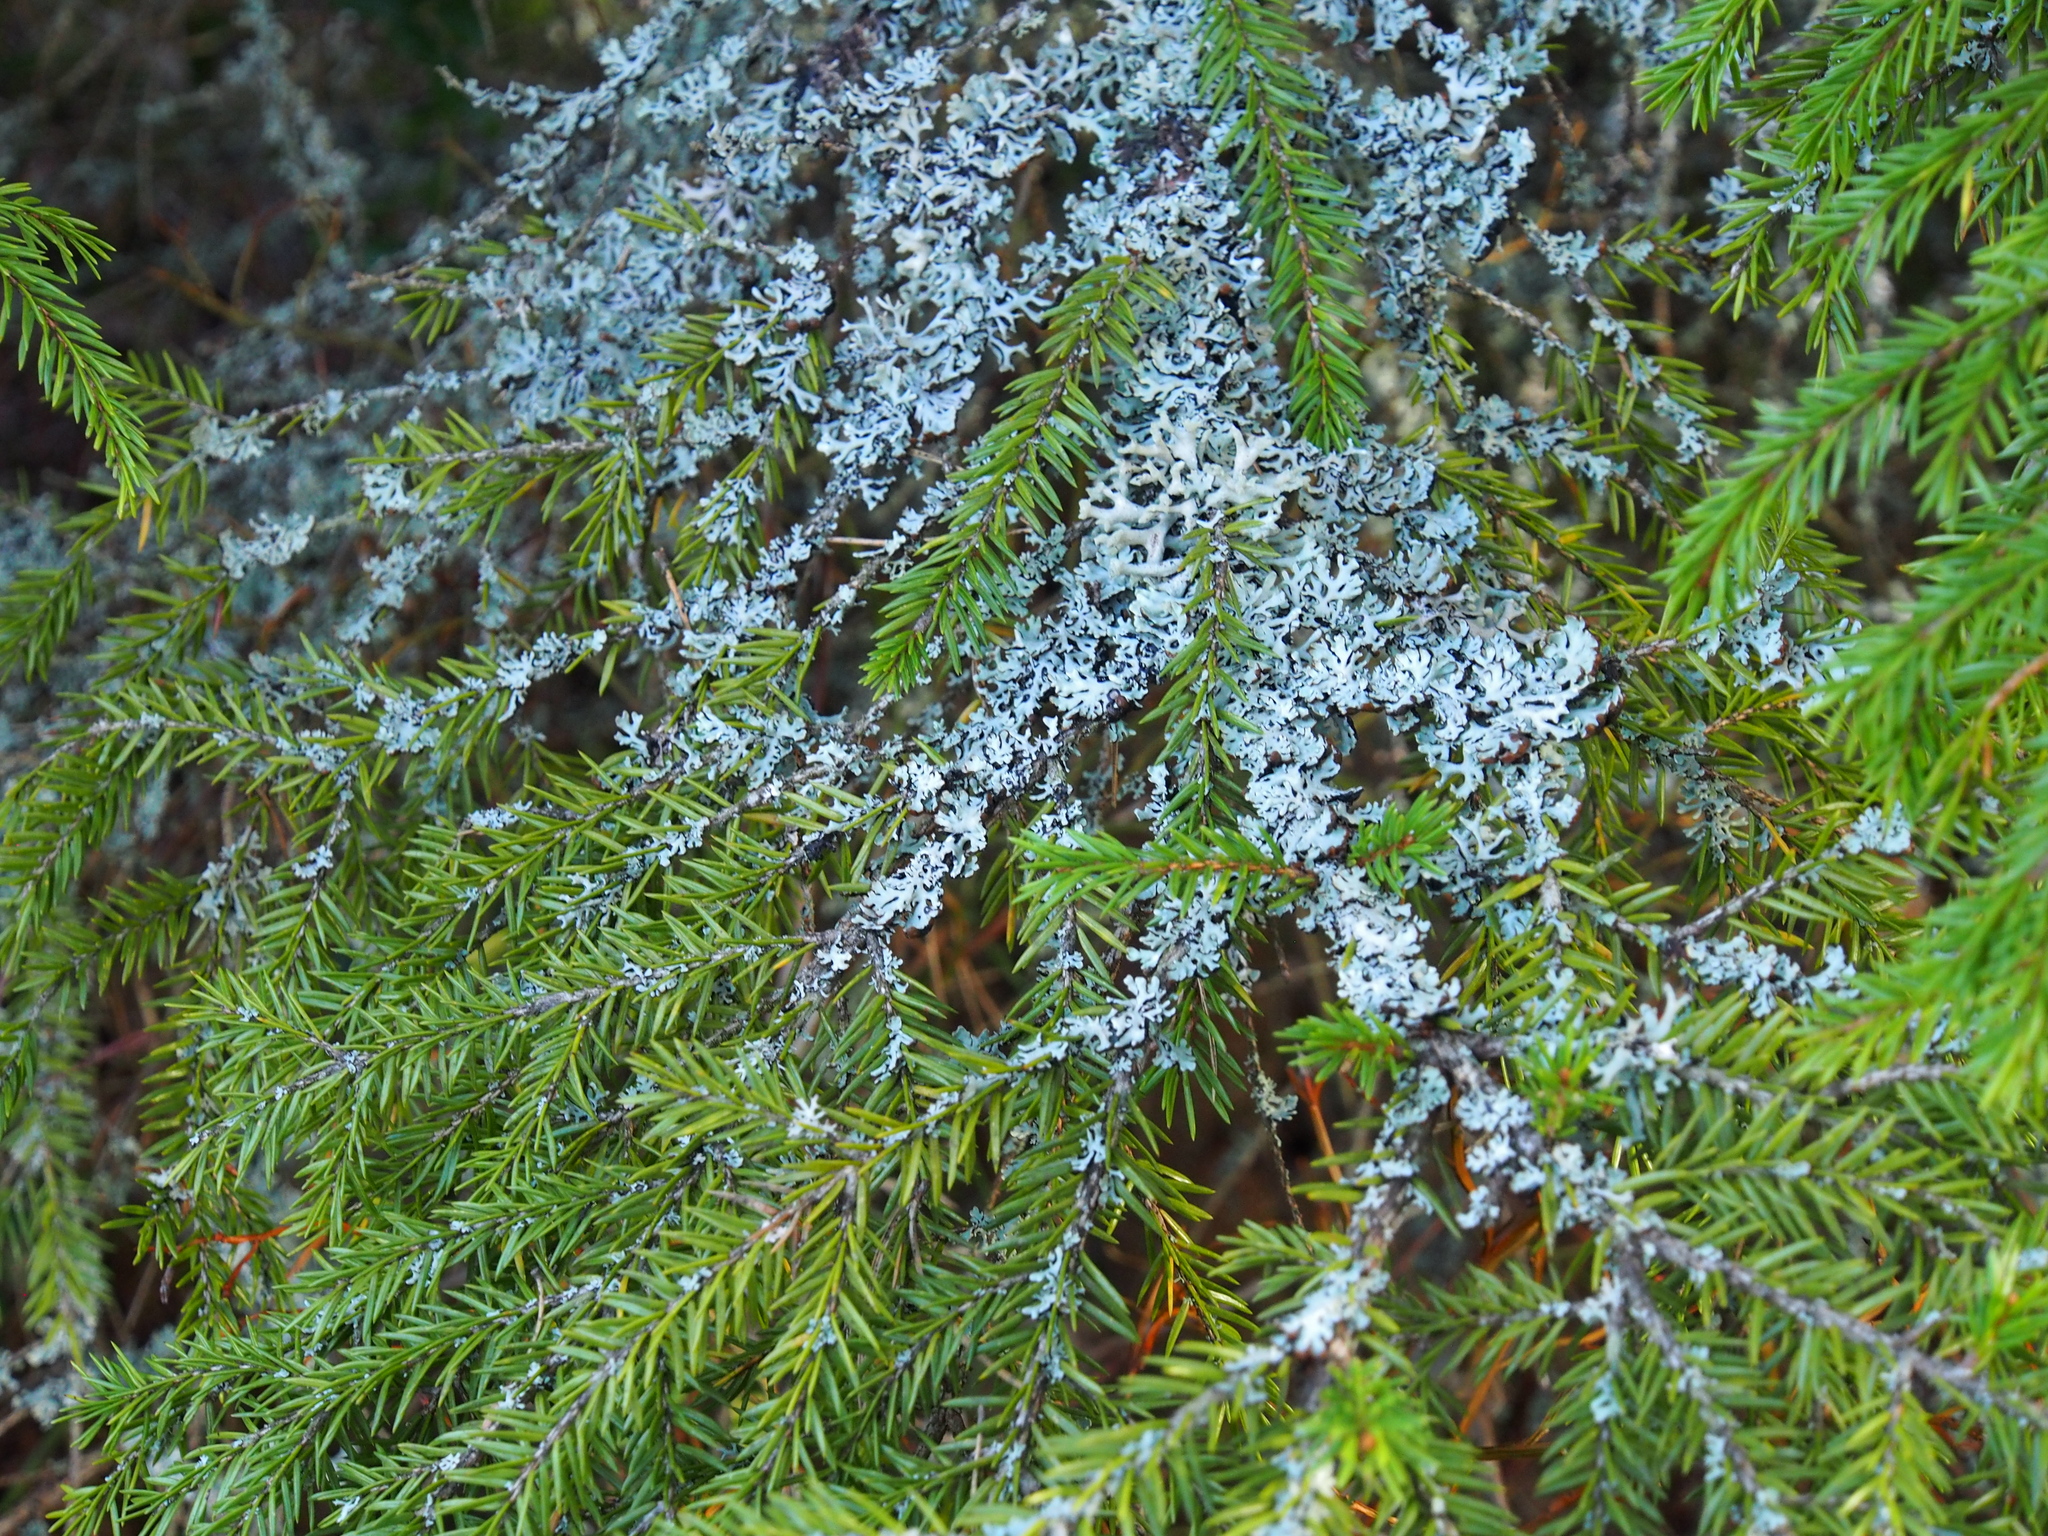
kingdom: Plantae
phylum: Tracheophyta
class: Pinopsida
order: Pinales
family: Pinaceae
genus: Picea
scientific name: Picea abies
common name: Norway spruce
